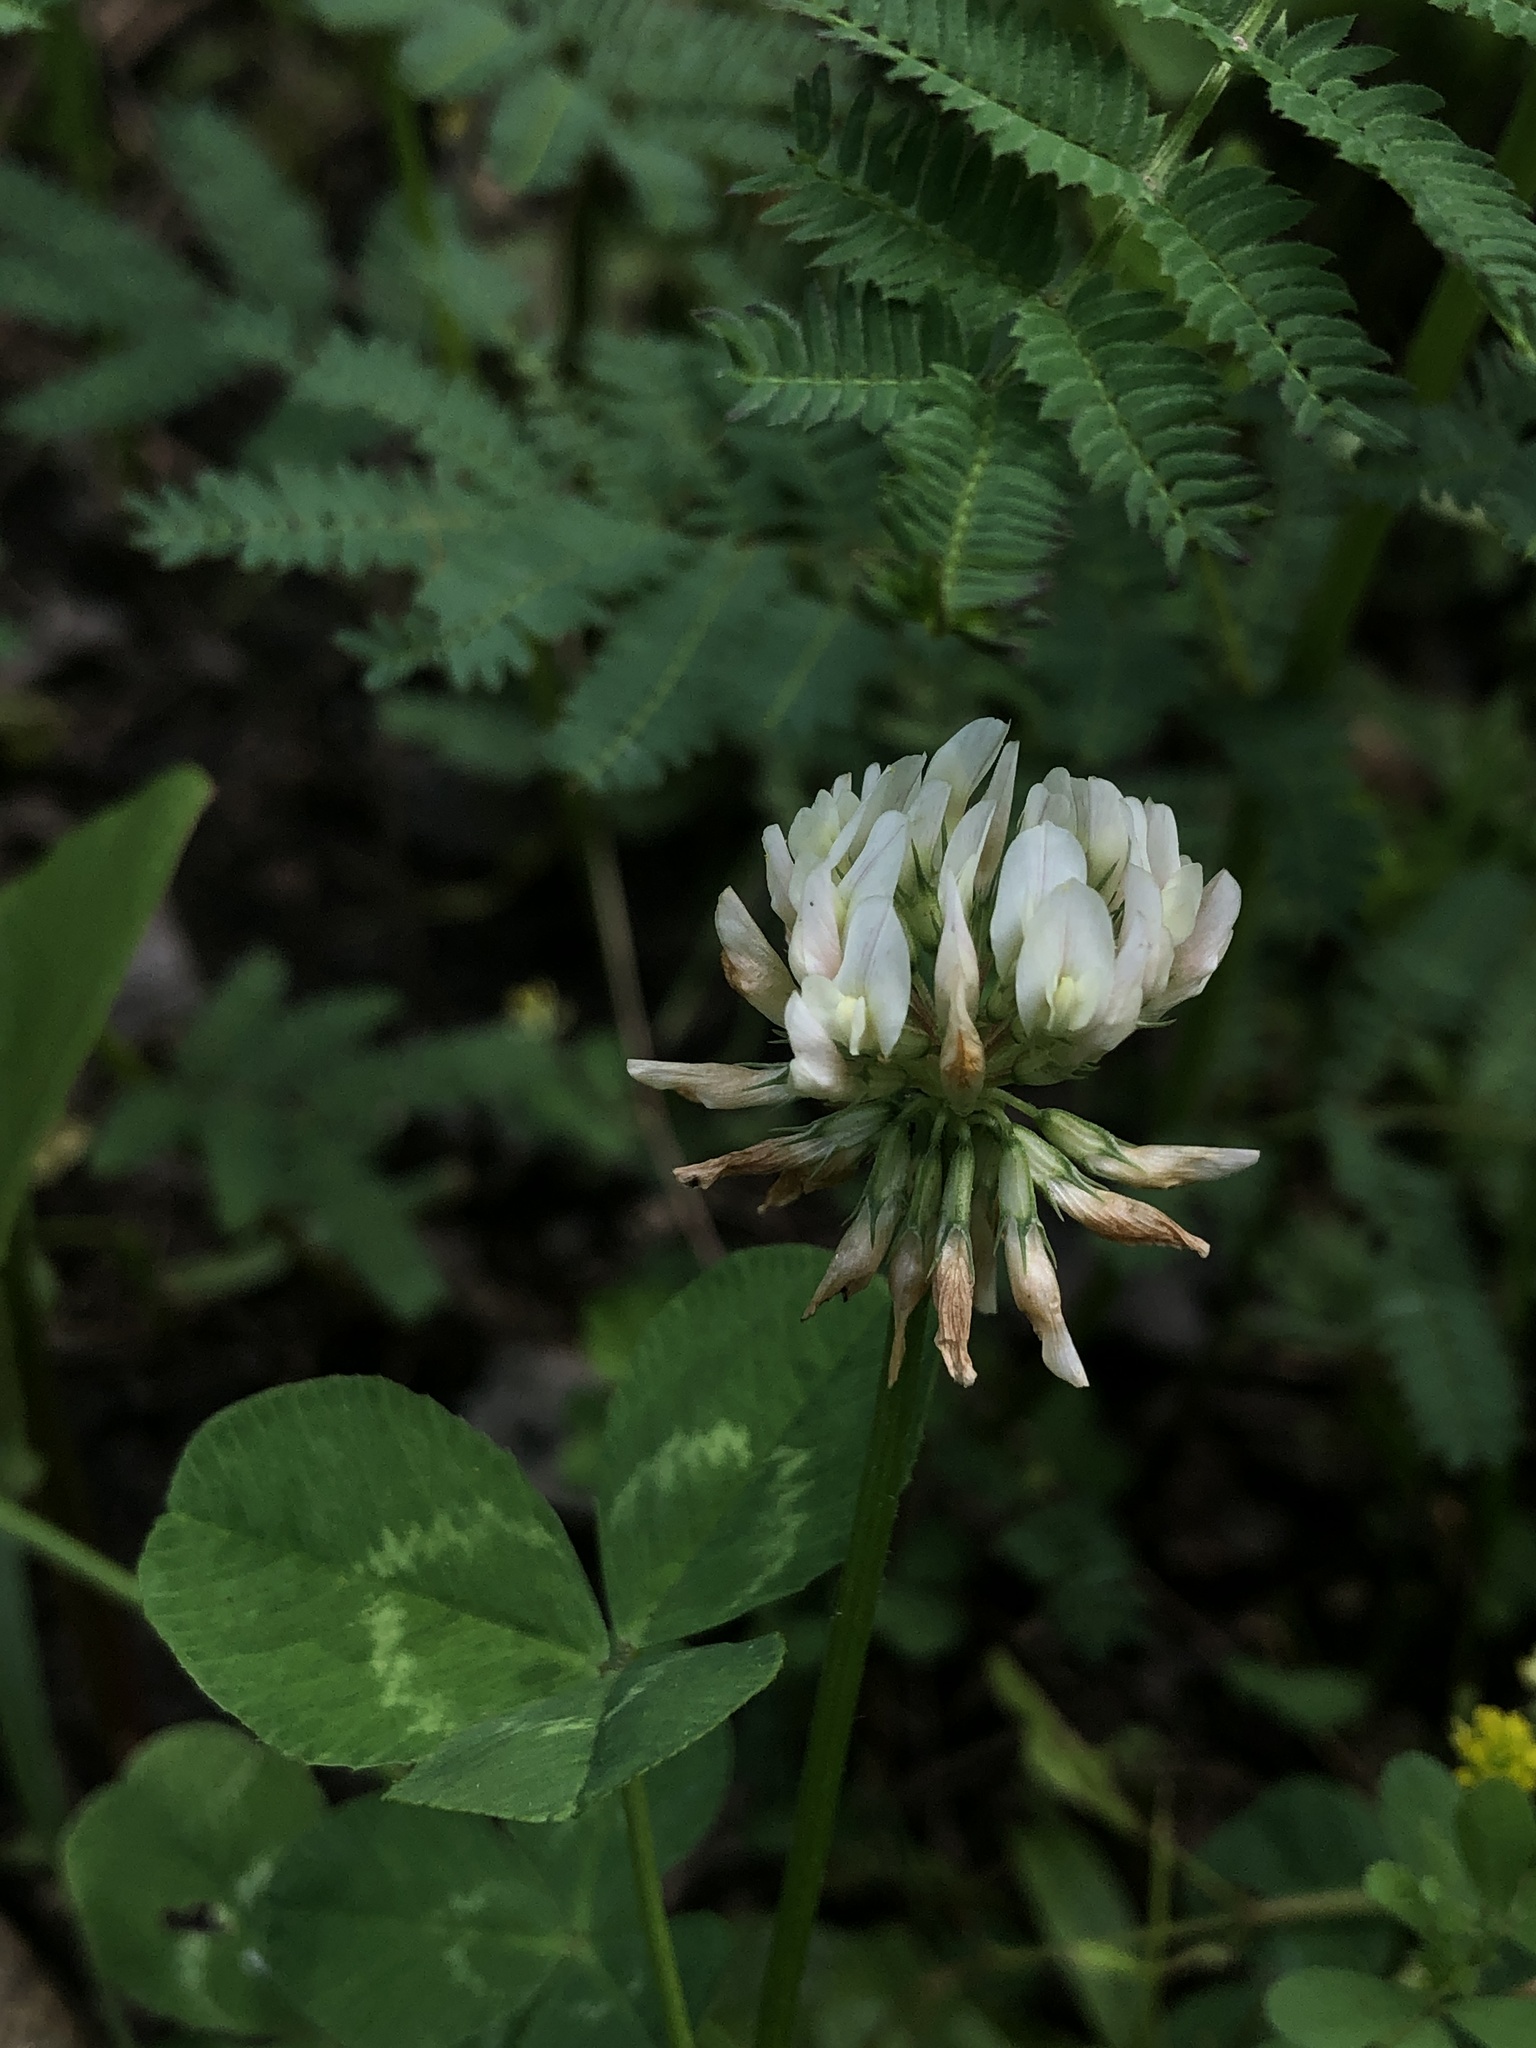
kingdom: Plantae
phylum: Tracheophyta
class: Magnoliopsida
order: Fabales
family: Fabaceae
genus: Trifolium
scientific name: Trifolium repens
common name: White clover
